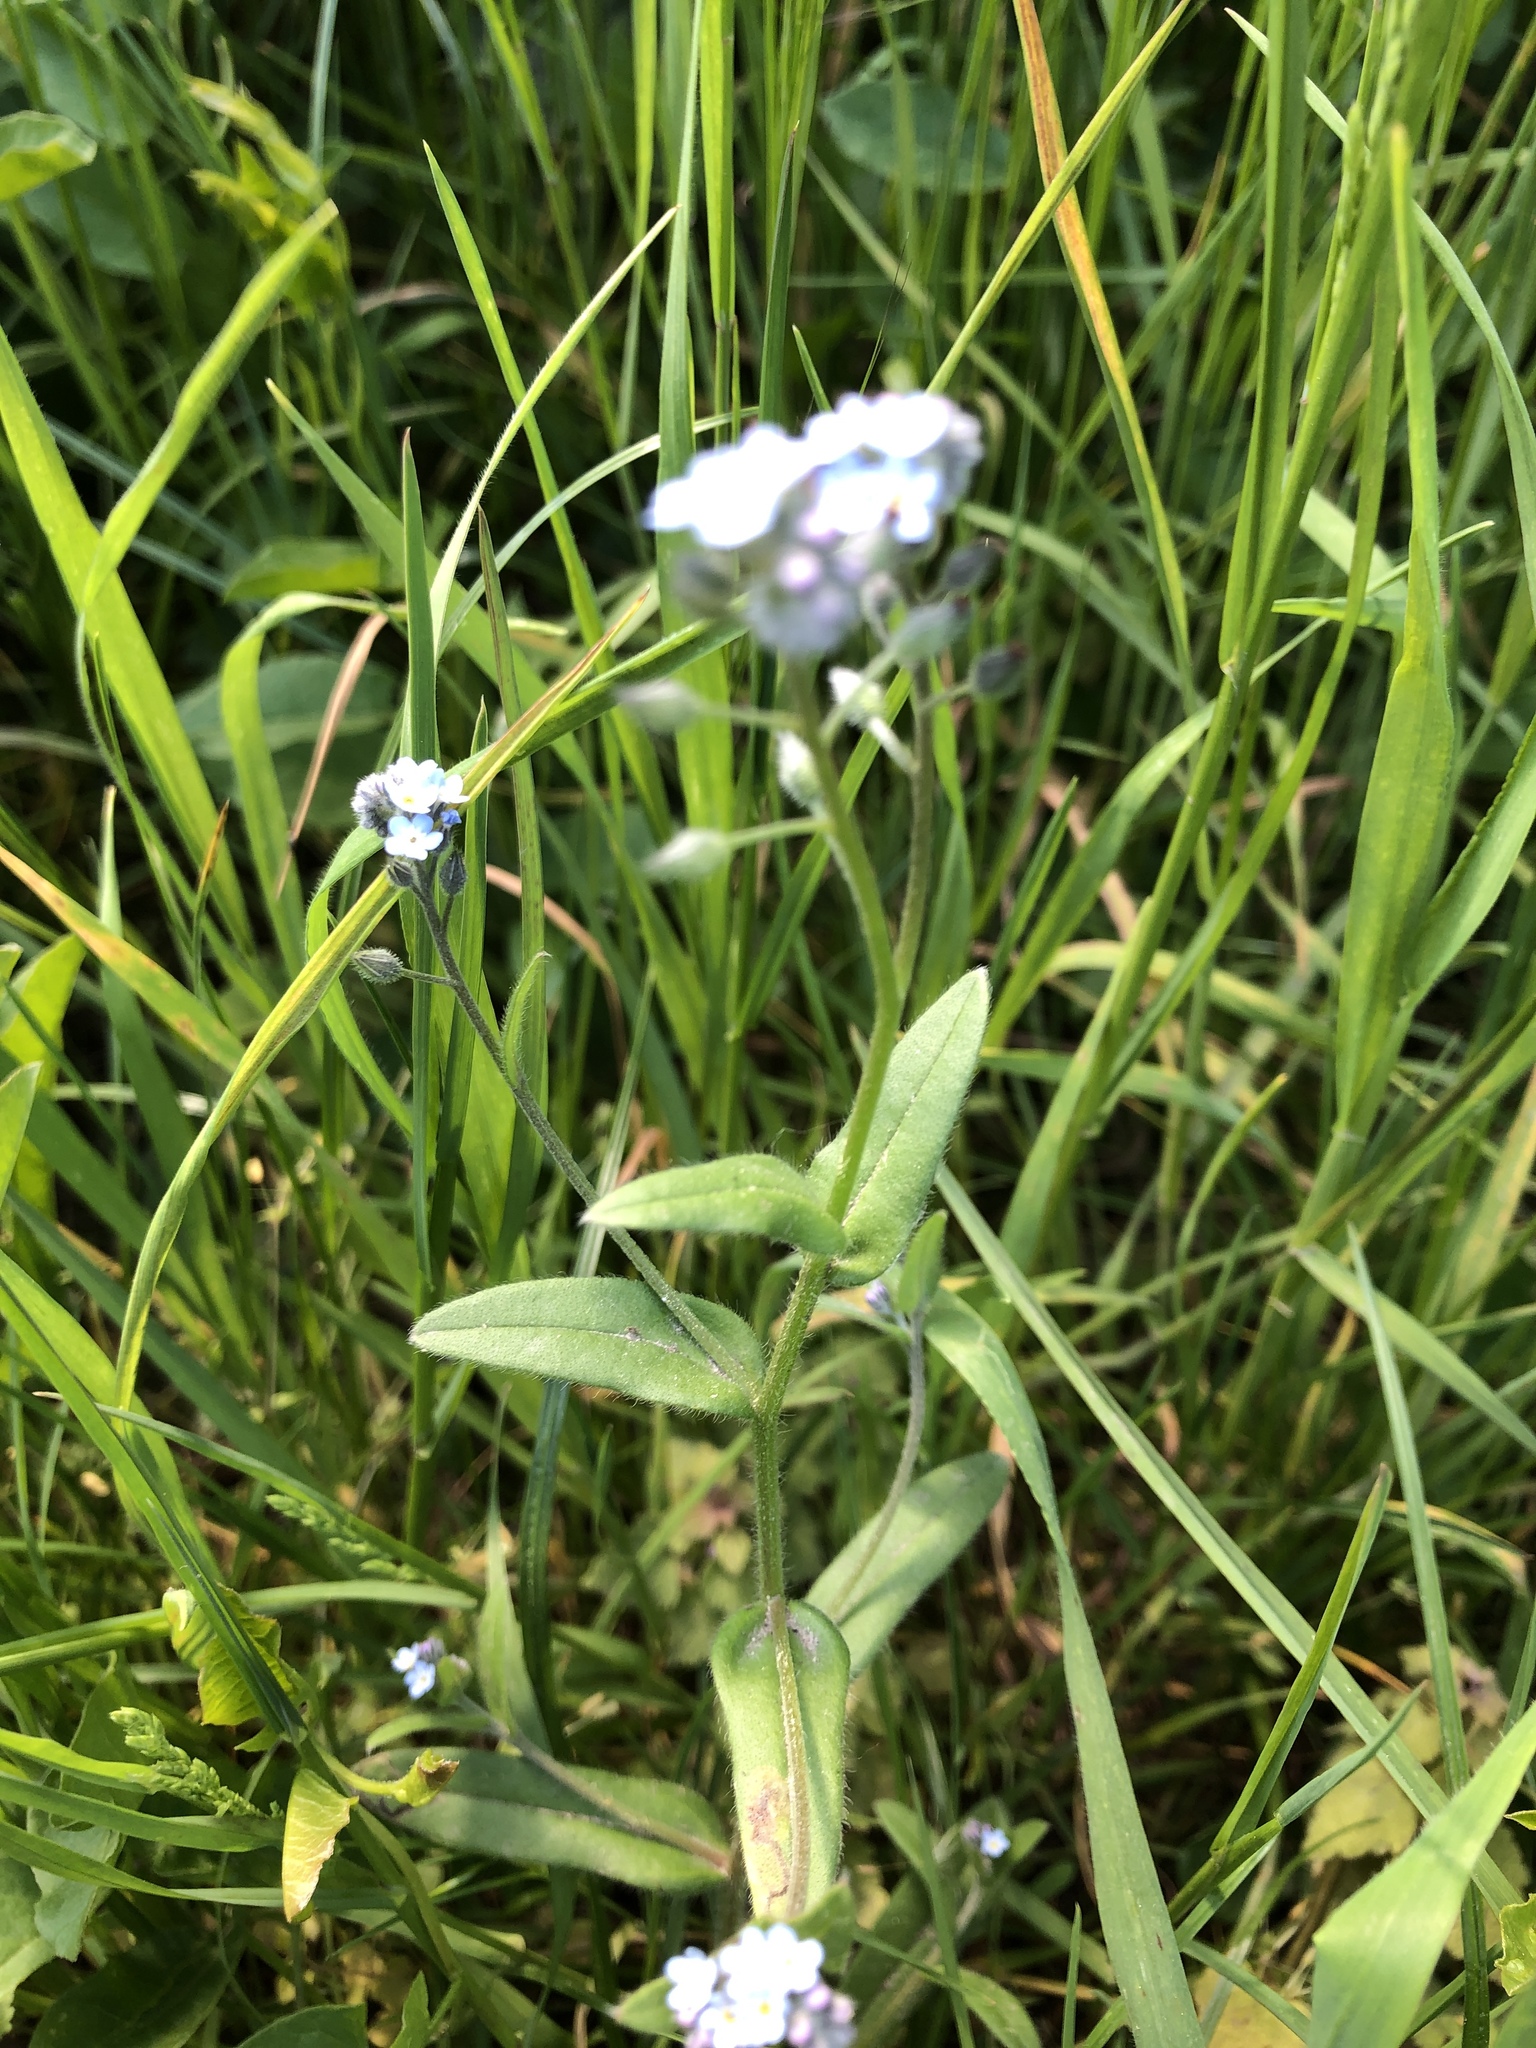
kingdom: Plantae
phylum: Tracheophyta
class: Magnoliopsida
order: Boraginales
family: Boraginaceae
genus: Myosotis
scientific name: Myosotis arvensis
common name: Field forget-me-not
